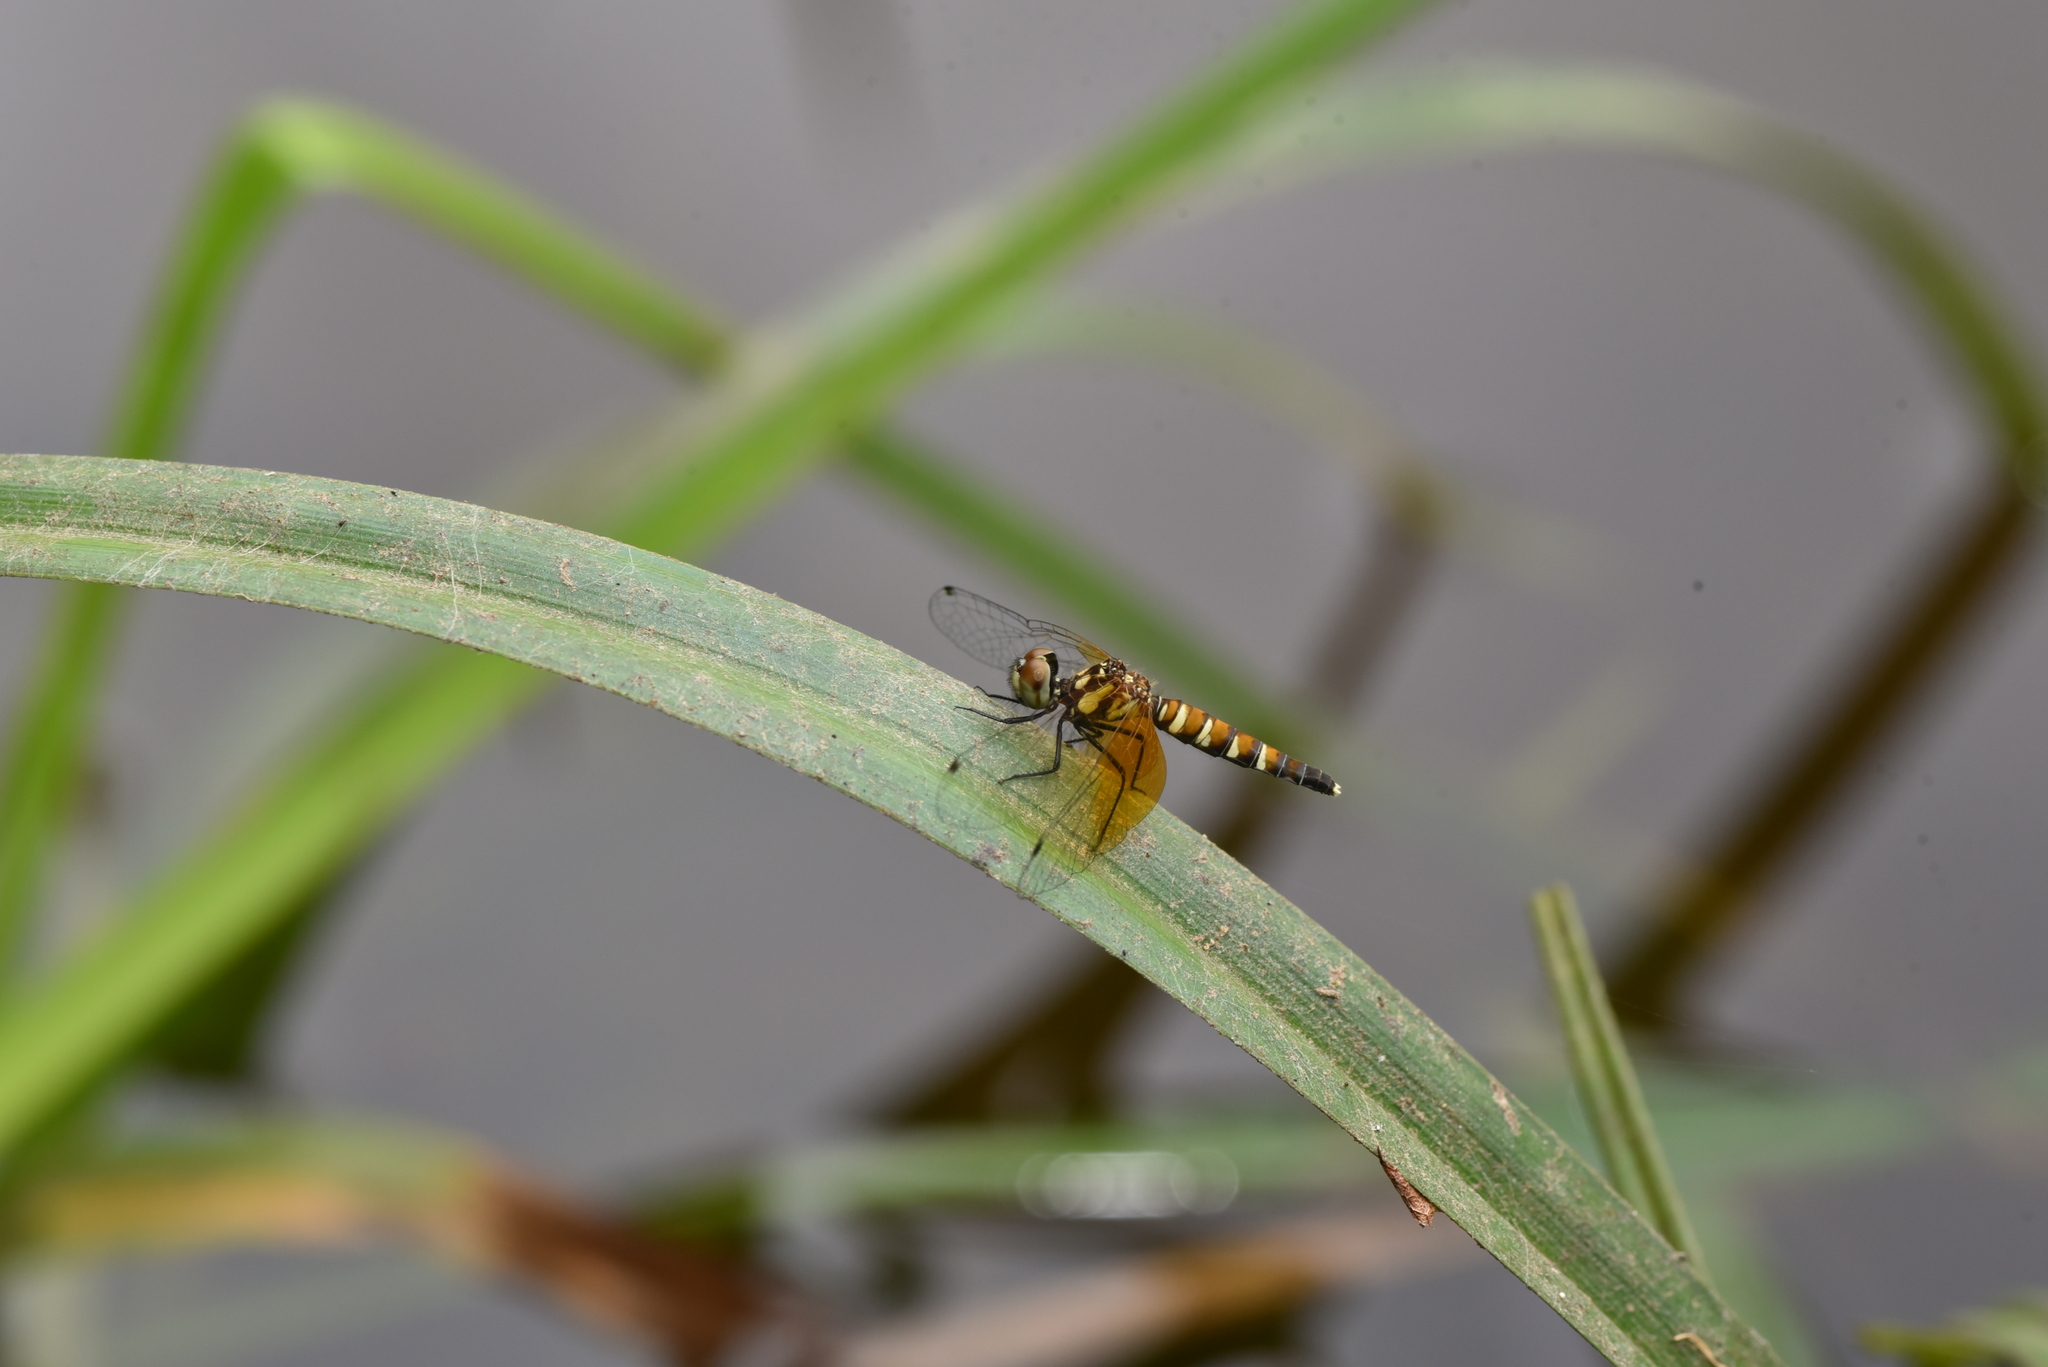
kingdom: Animalia
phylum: Arthropoda
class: Insecta
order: Odonata
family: Libellulidae
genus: Nannophya
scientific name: Nannophya pygmaea
